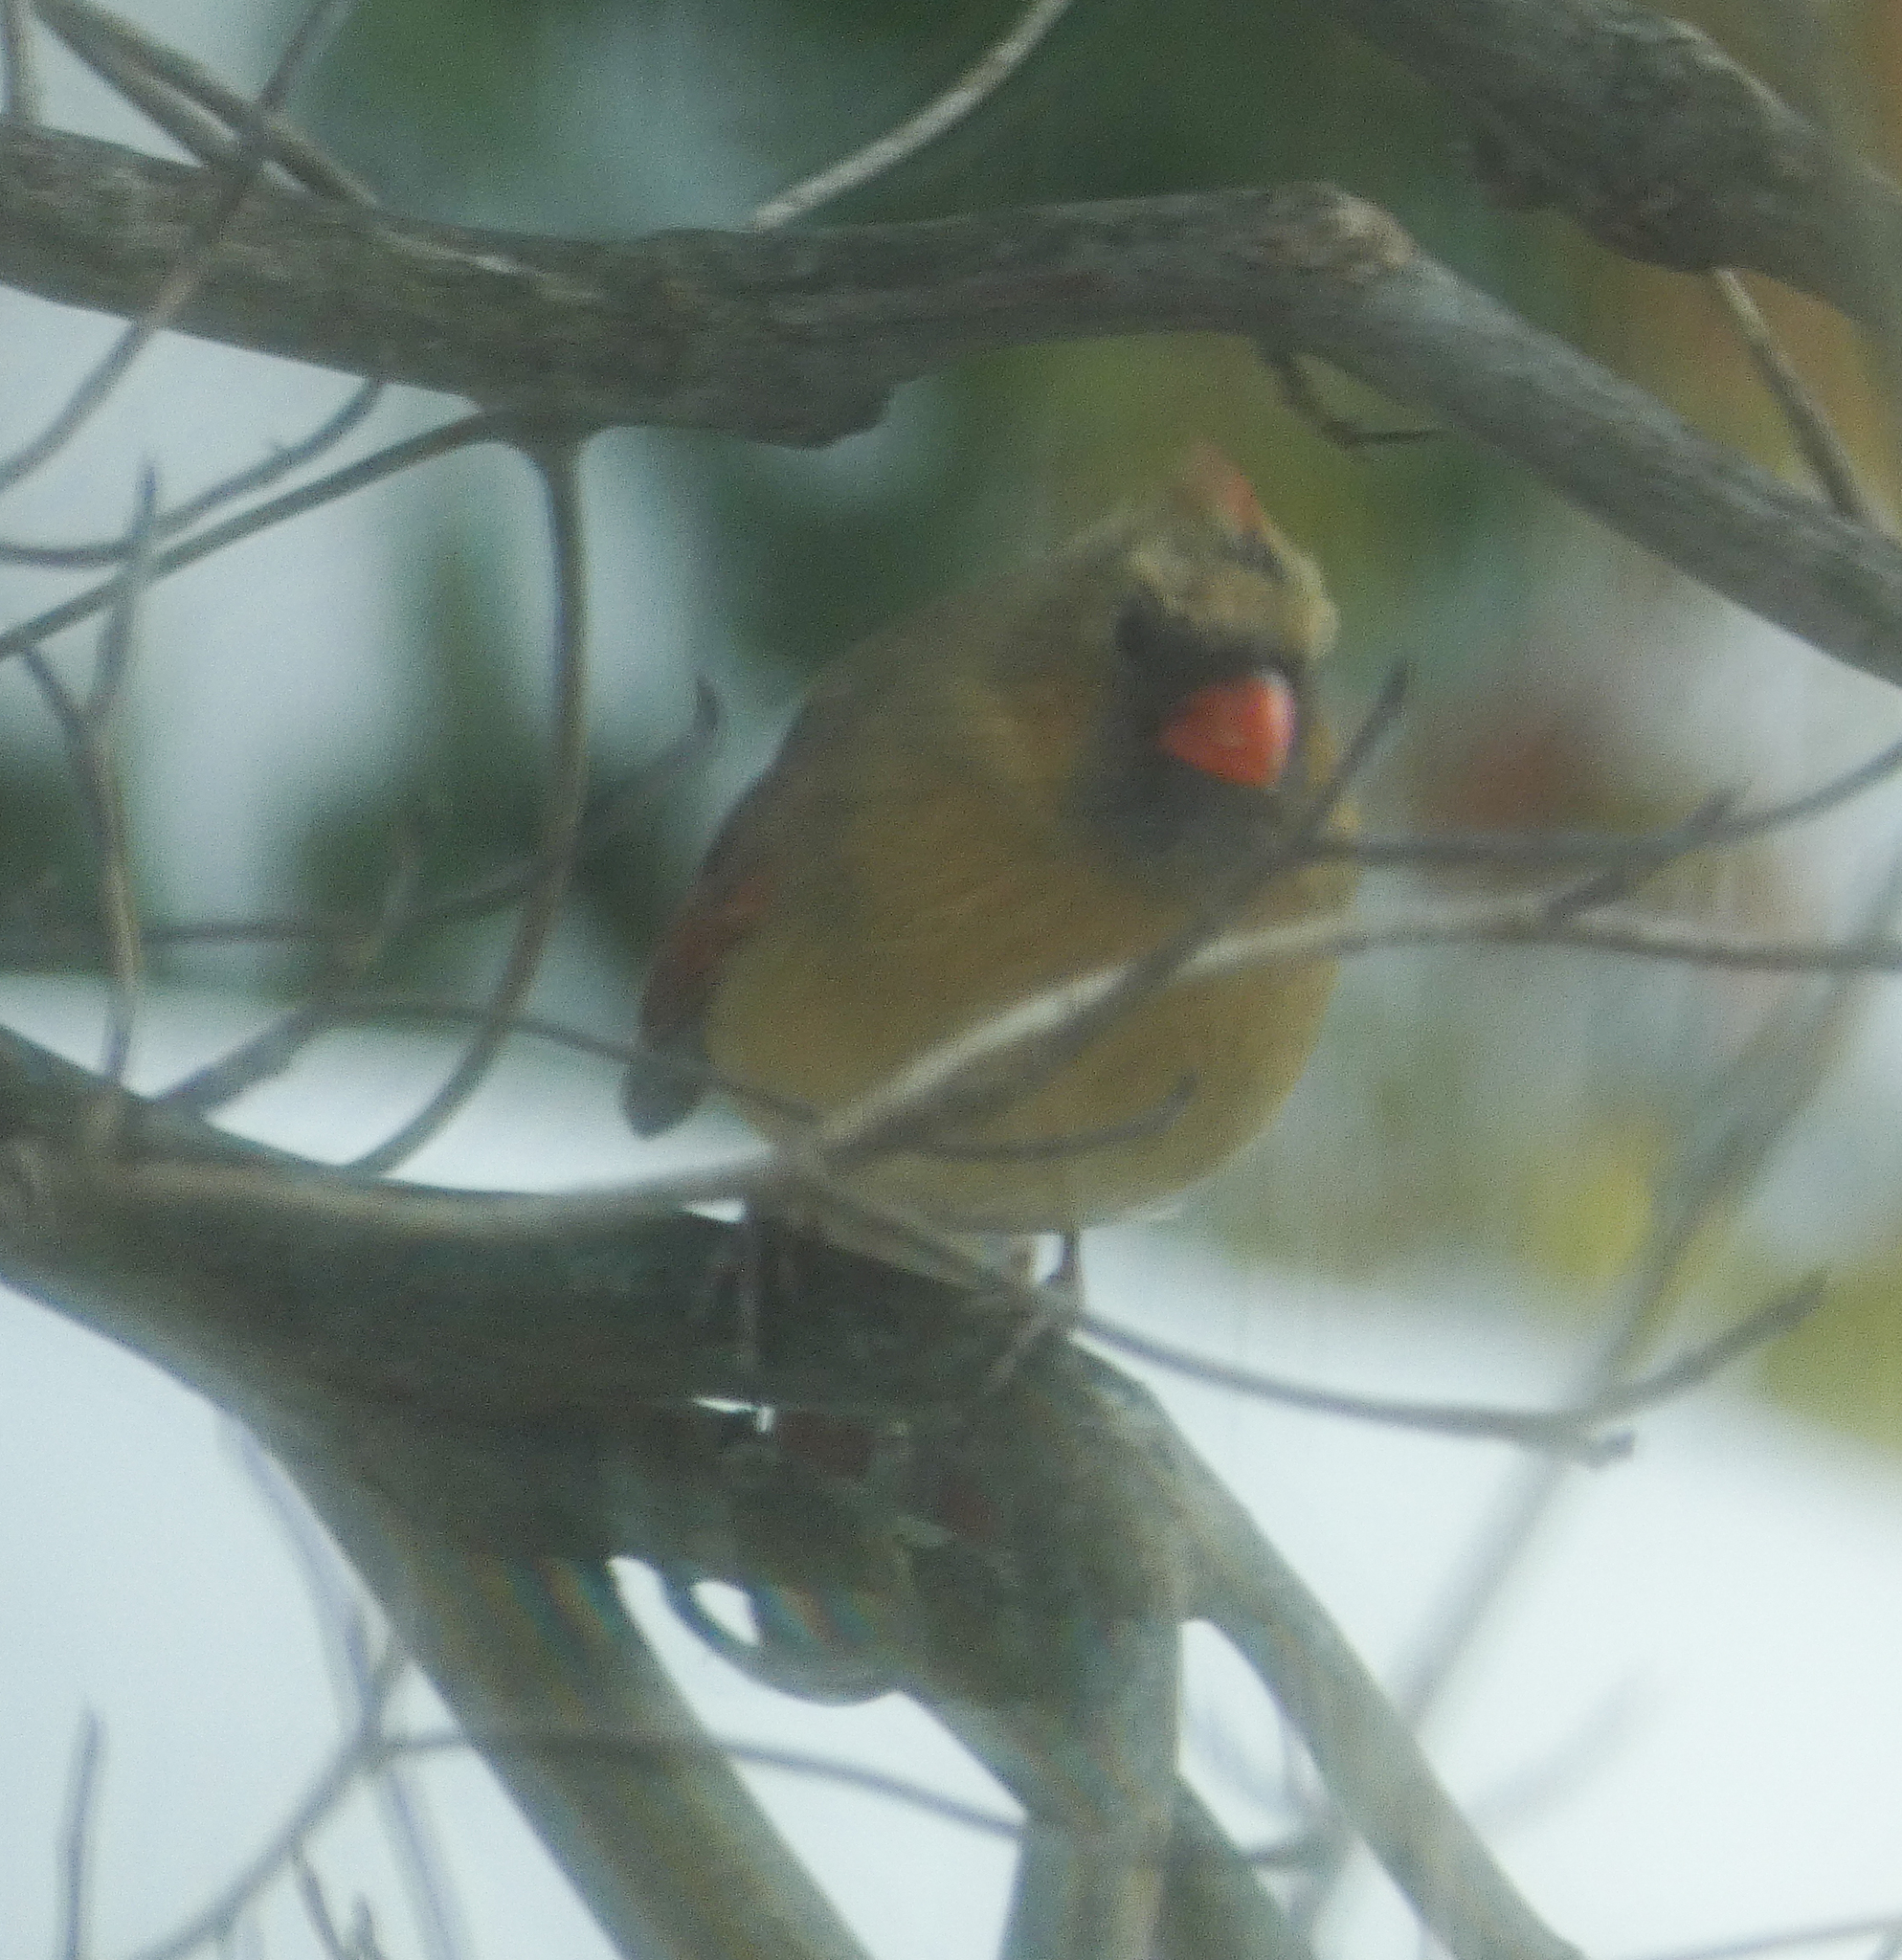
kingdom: Animalia
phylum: Chordata
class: Aves
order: Passeriformes
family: Cardinalidae
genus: Cardinalis
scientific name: Cardinalis cardinalis
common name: Northern cardinal
